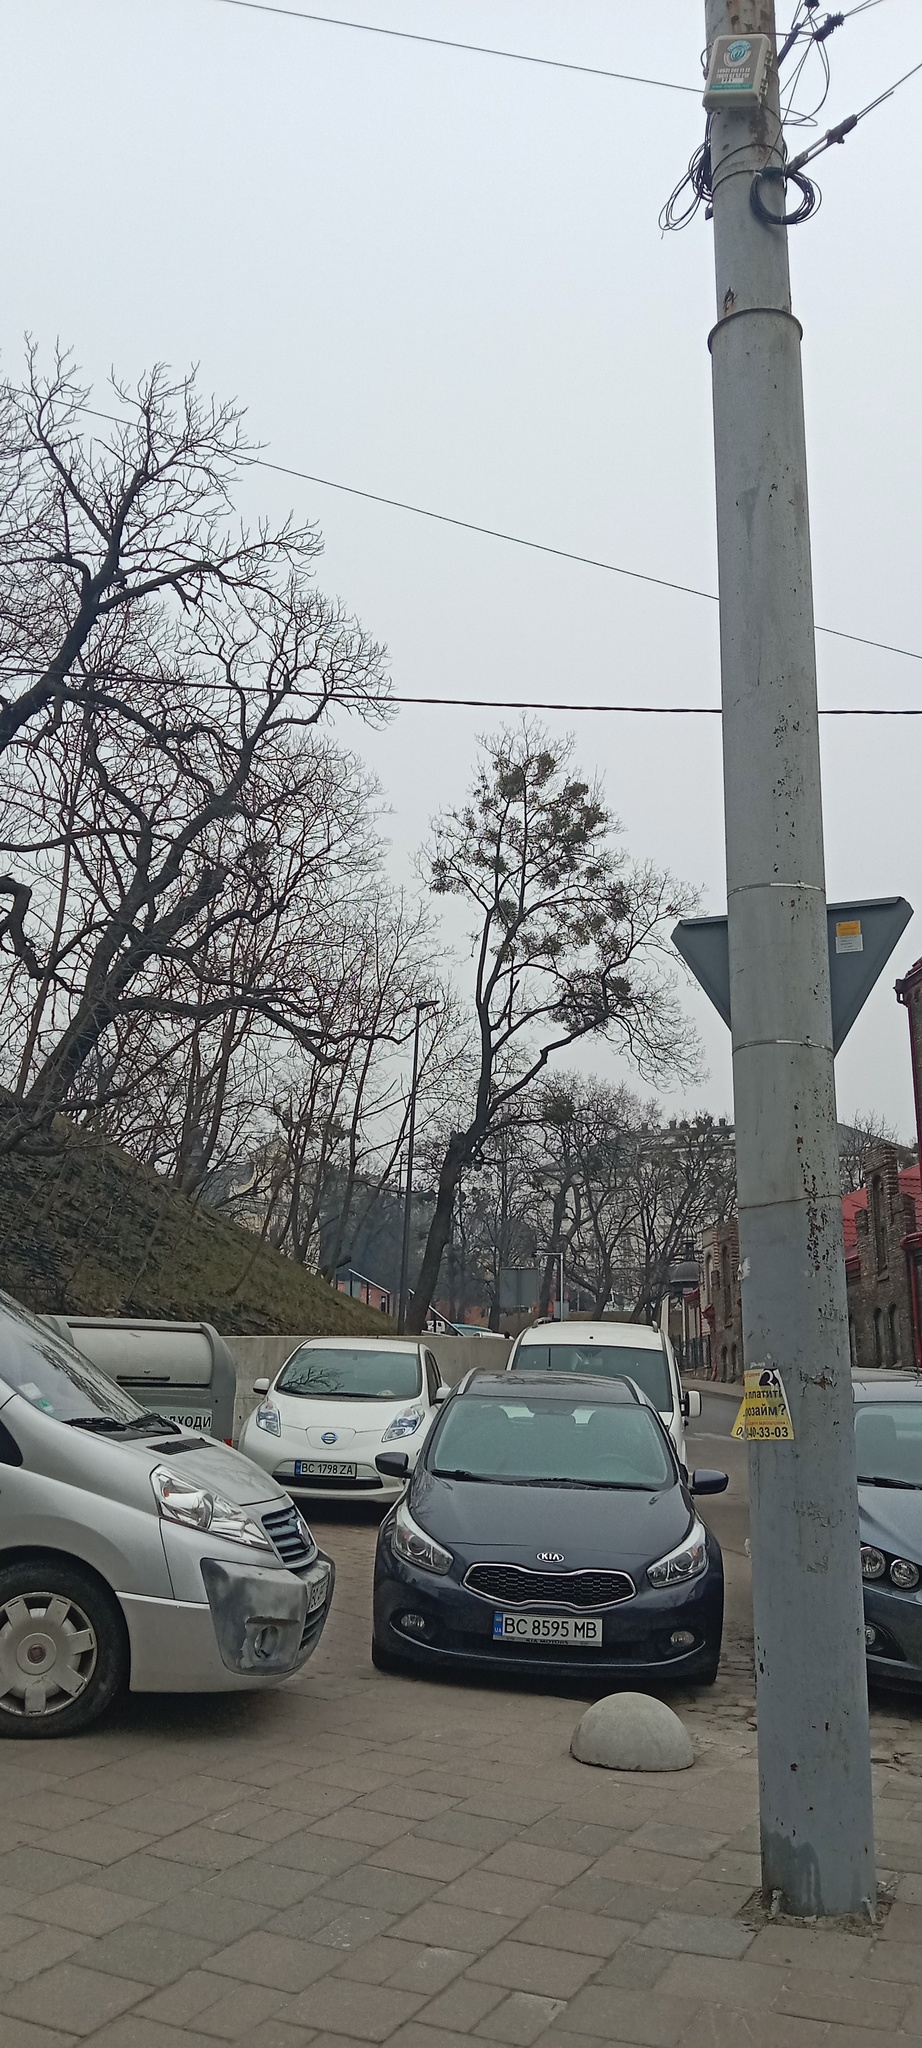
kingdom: Plantae
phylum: Tracheophyta
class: Magnoliopsida
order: Santalales
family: Viscaceae
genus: Viscum
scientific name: Viscum album
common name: Mistletoe
